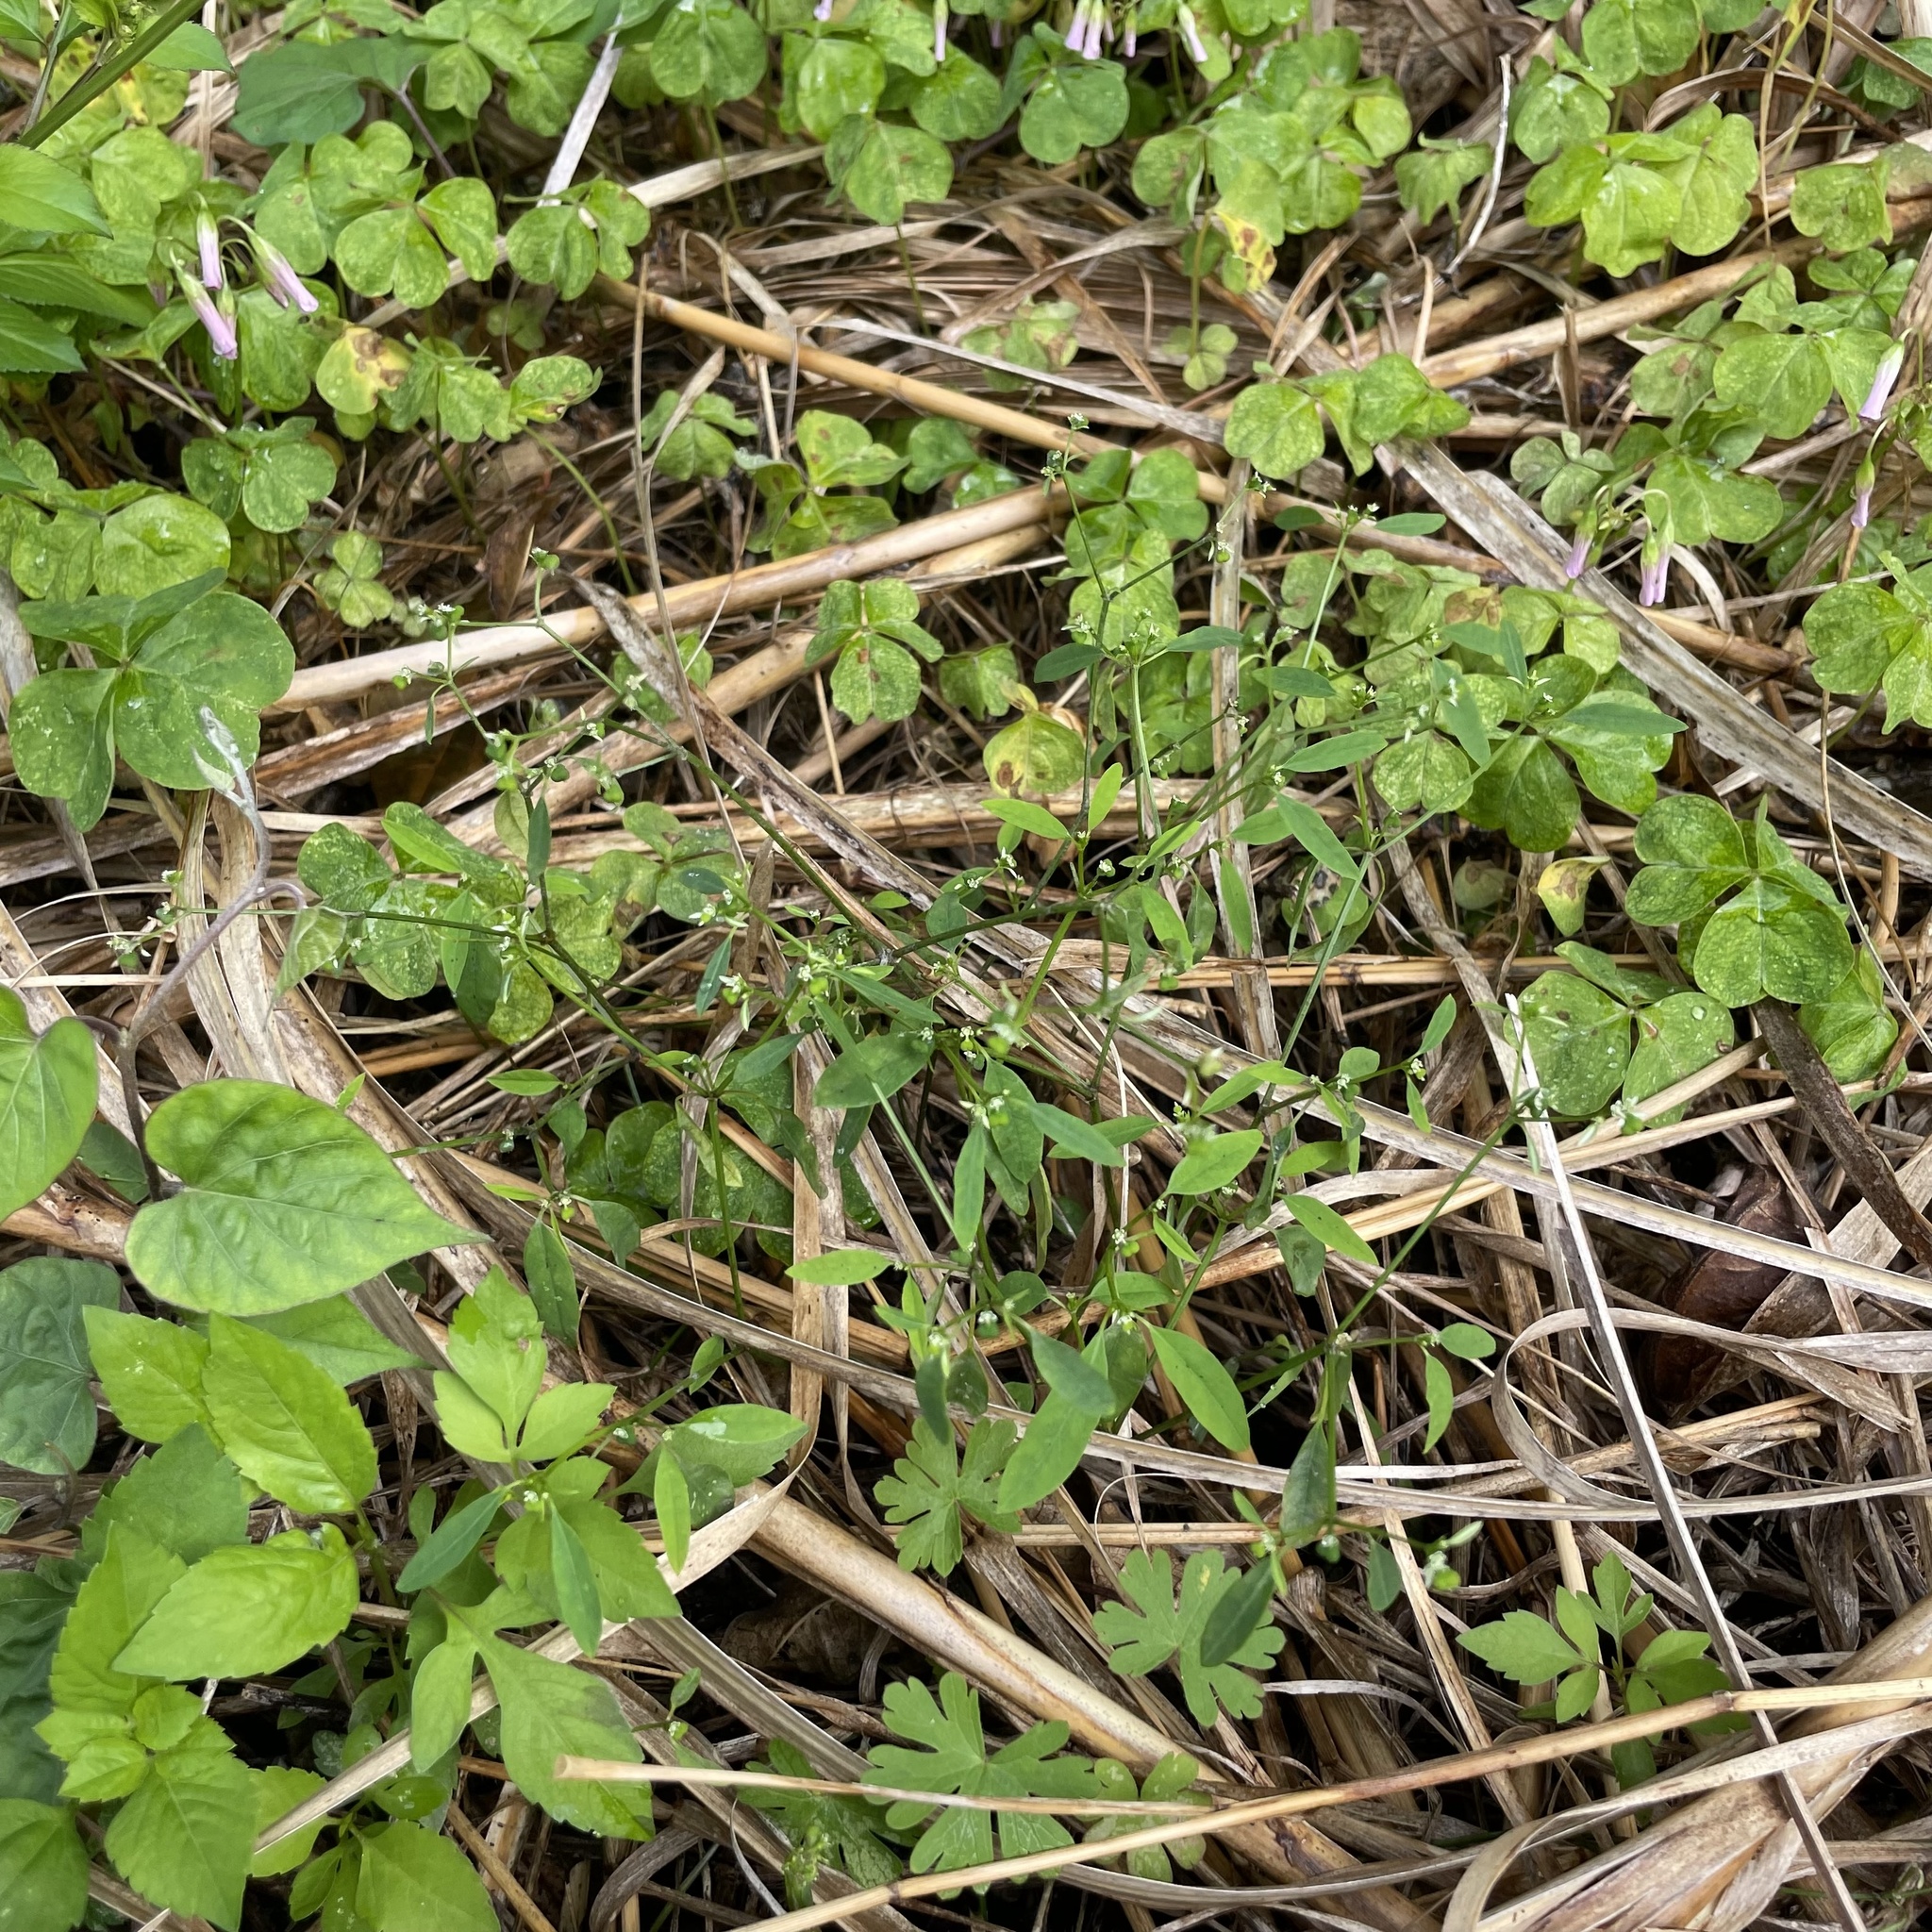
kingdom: Plantae
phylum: Tracheophyta
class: Magnoliopsida
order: Malpighiales
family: Euphorbiaceae
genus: Euphorbia
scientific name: Euphorbia graminea
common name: Grassleaf spurge
